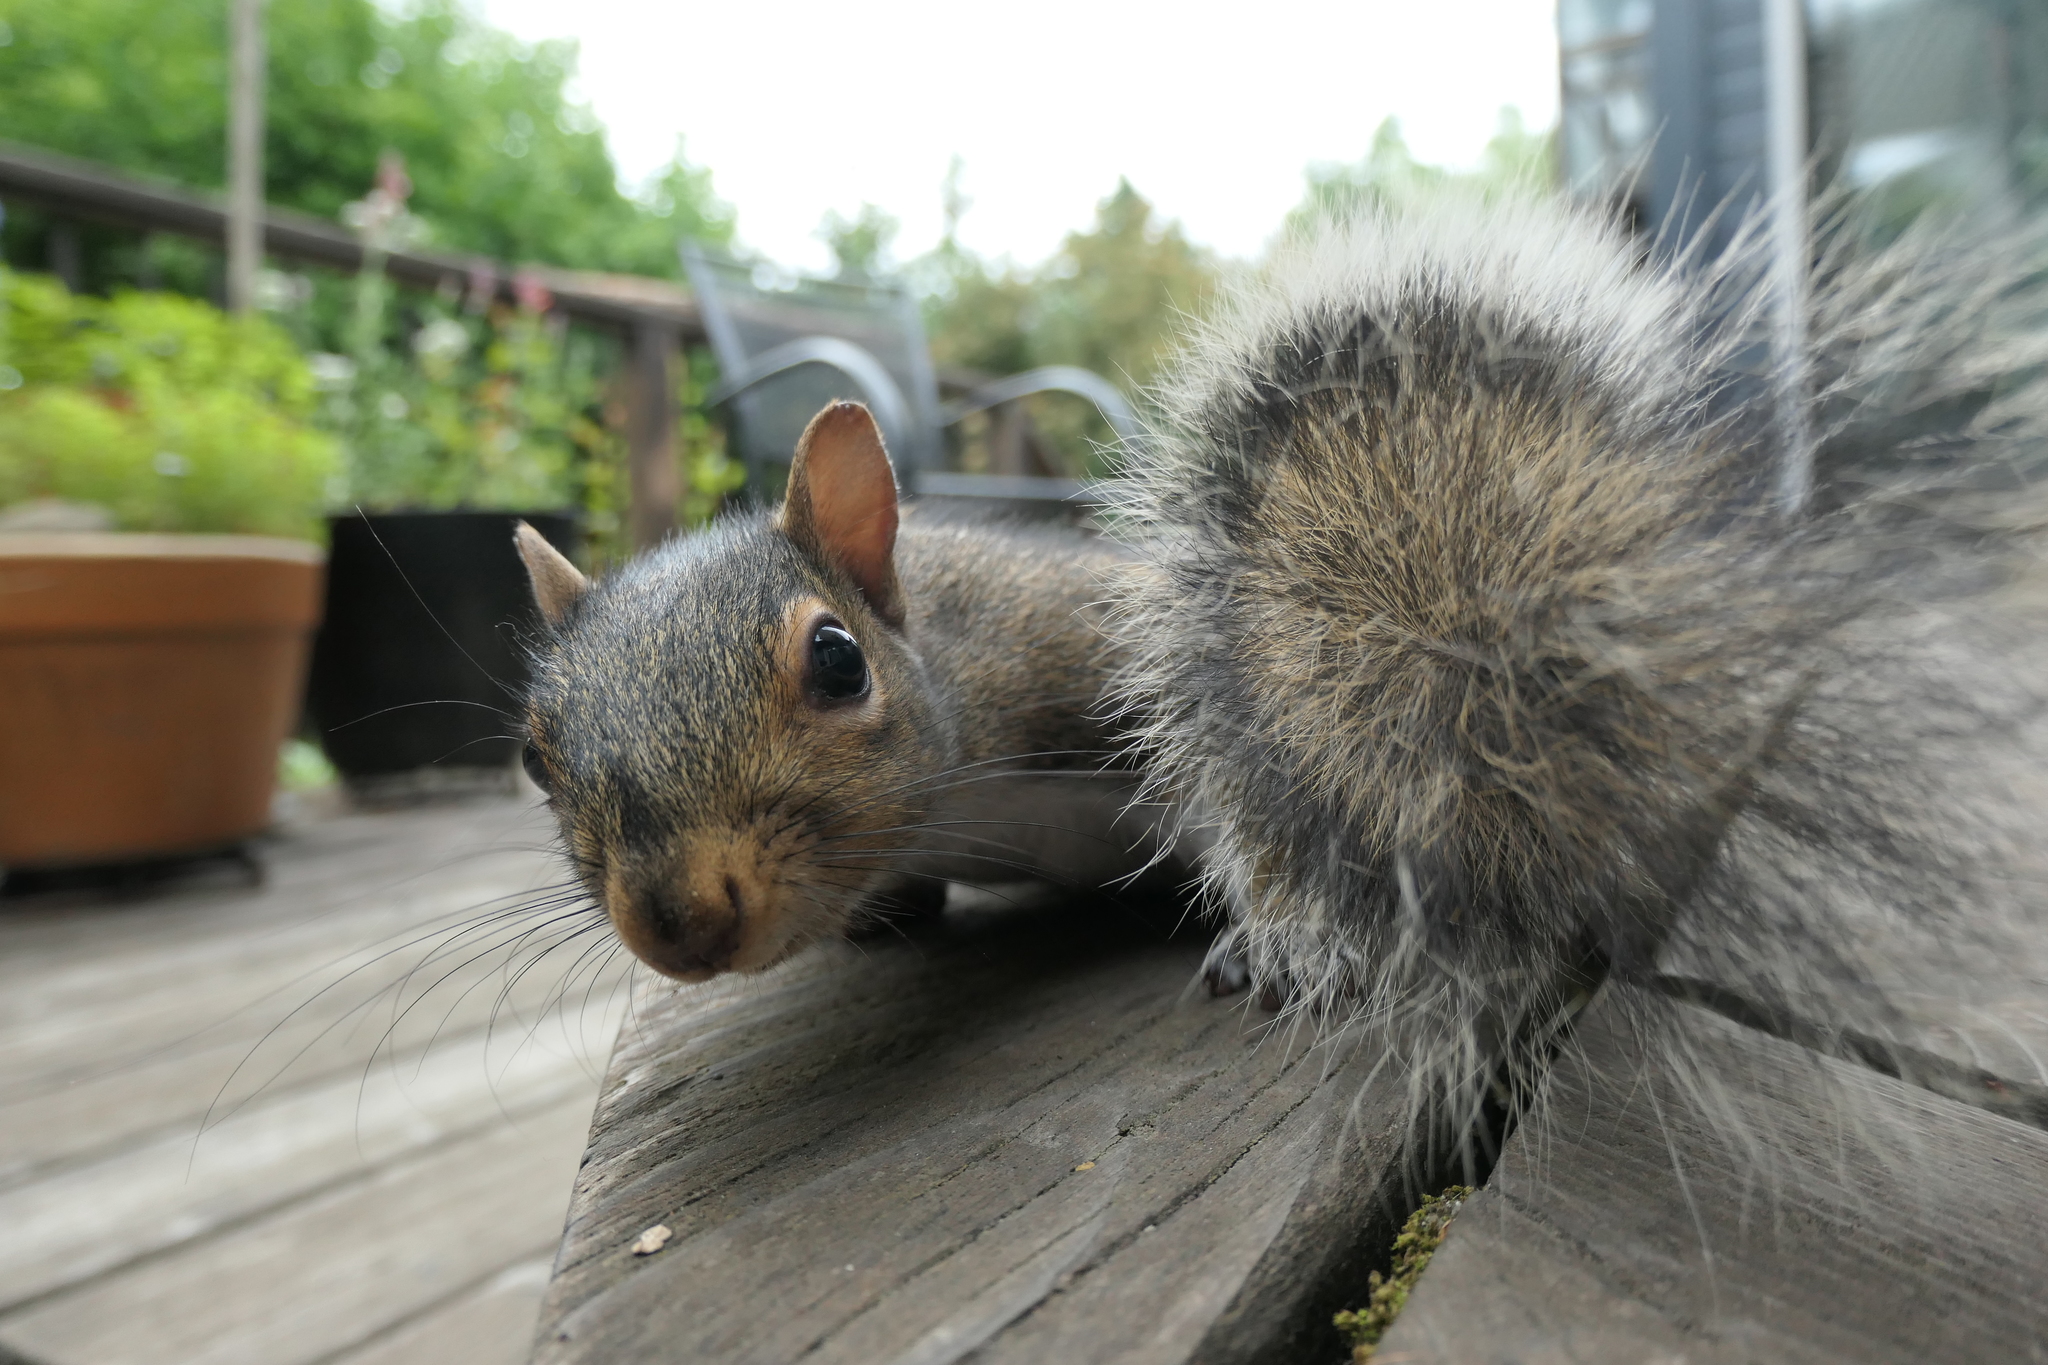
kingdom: Animalia
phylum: Chordata
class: Mammalia
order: Rodentia
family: Sciuridae
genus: Sciurus
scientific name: Sciurus carolinensis
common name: Eastern gray squirrel
